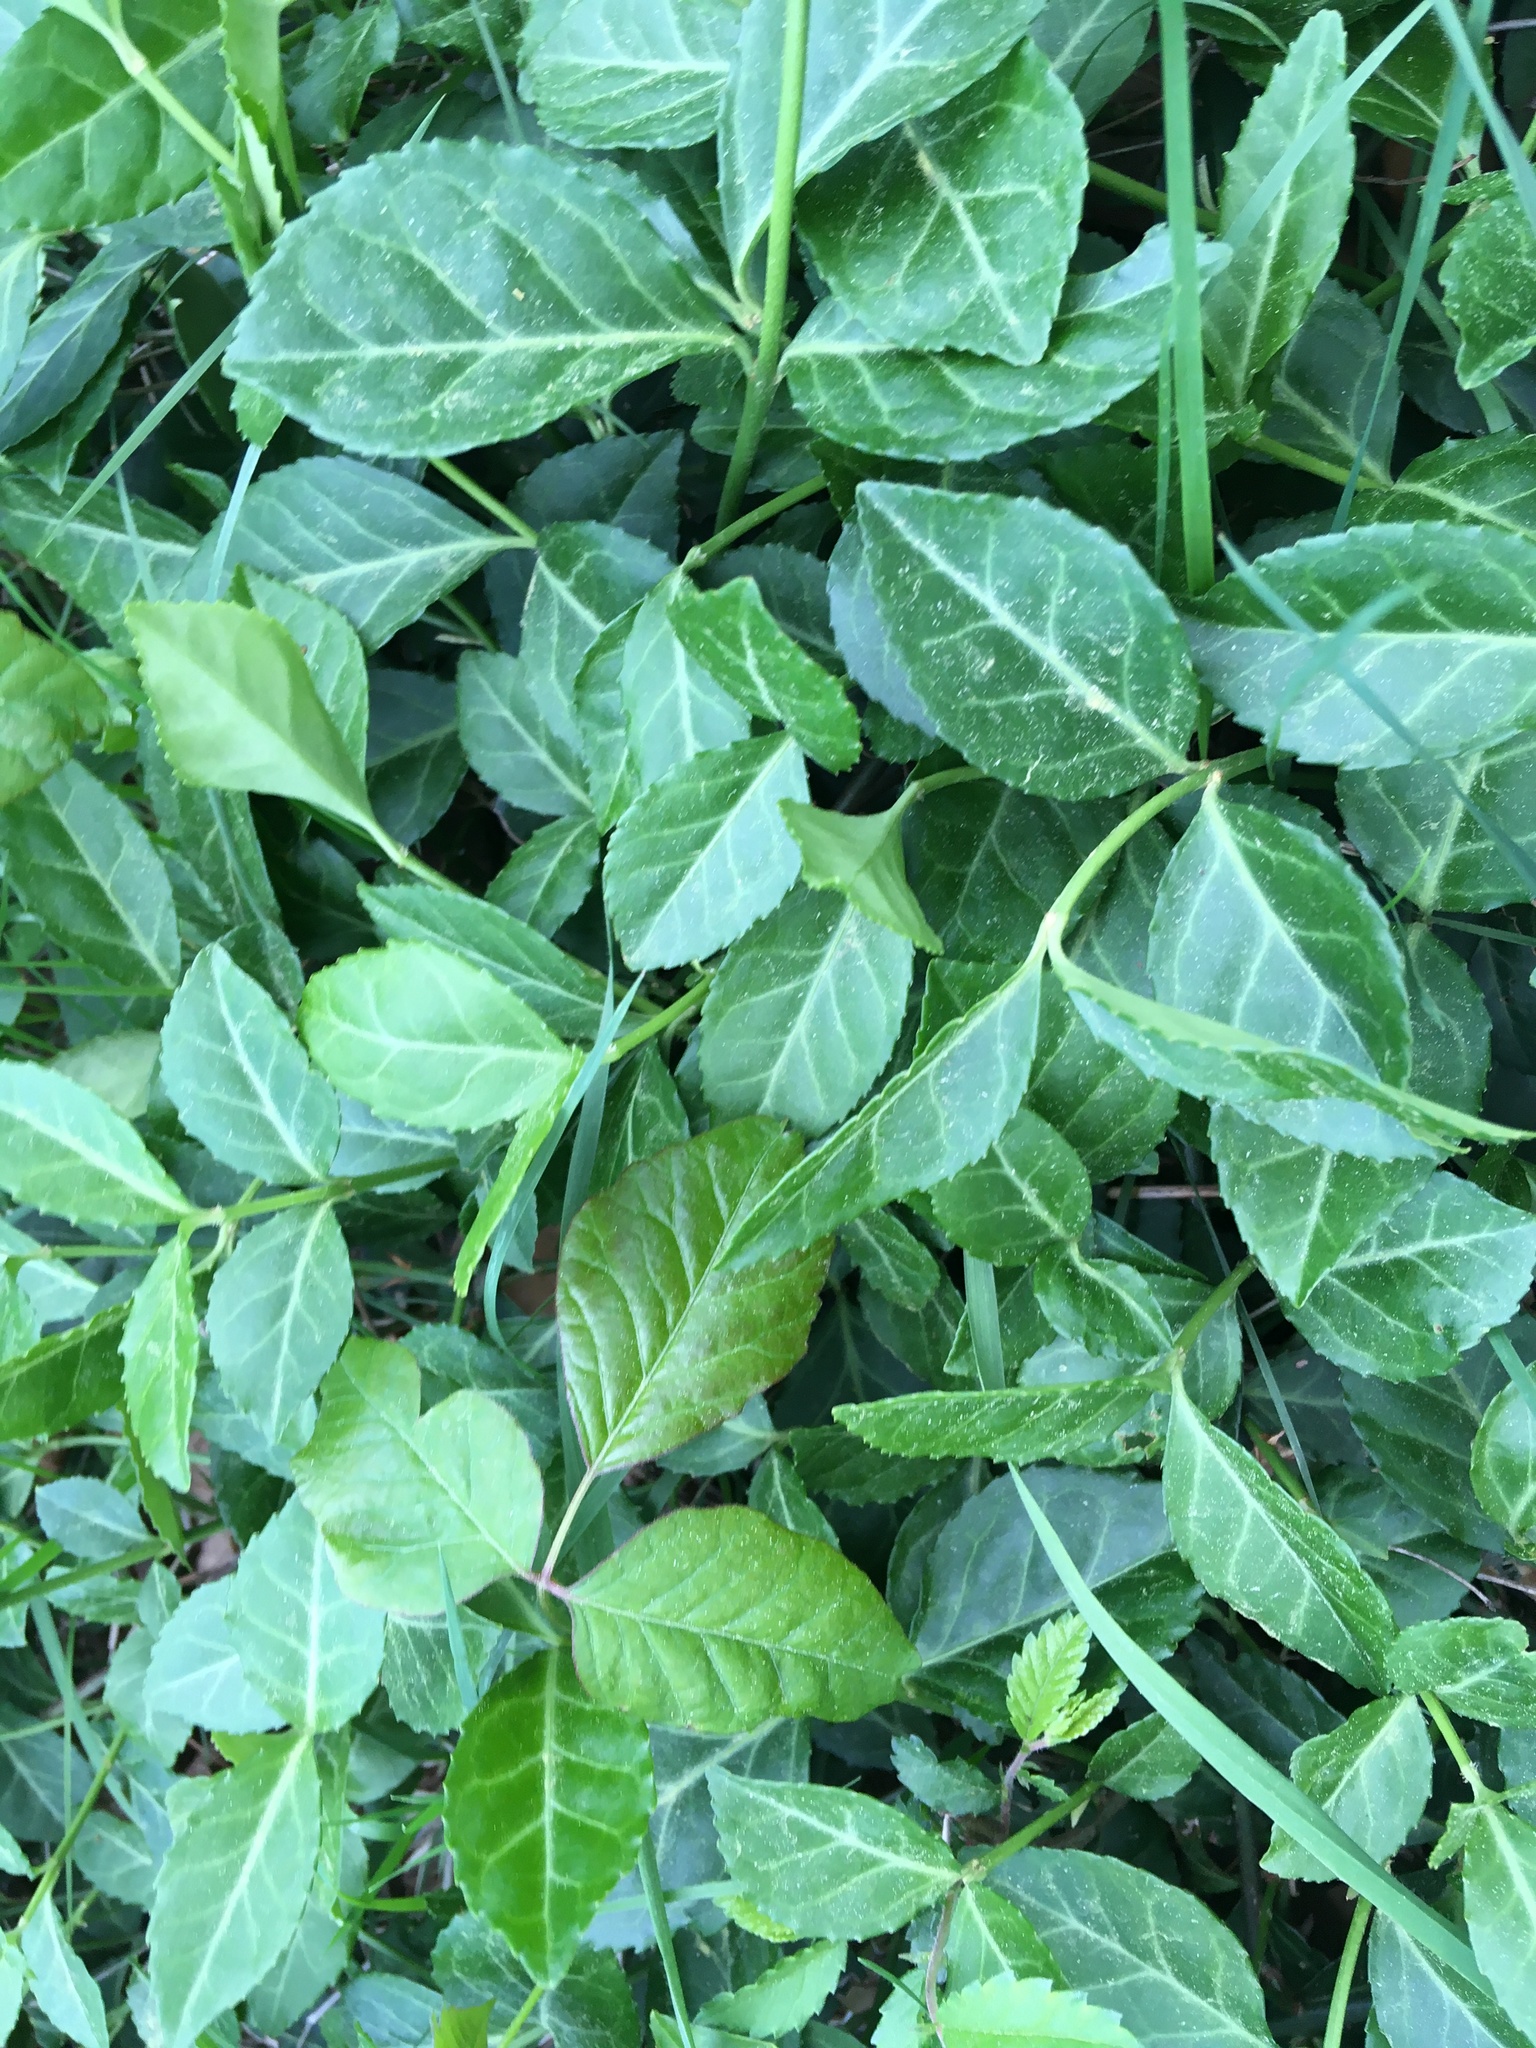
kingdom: Plantae
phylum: Tracheophyta
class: Magnoliopsida
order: Celastrales
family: Celastraceae
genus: Euonymus
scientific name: Euonymus fortunei
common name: Climbing euonymus
